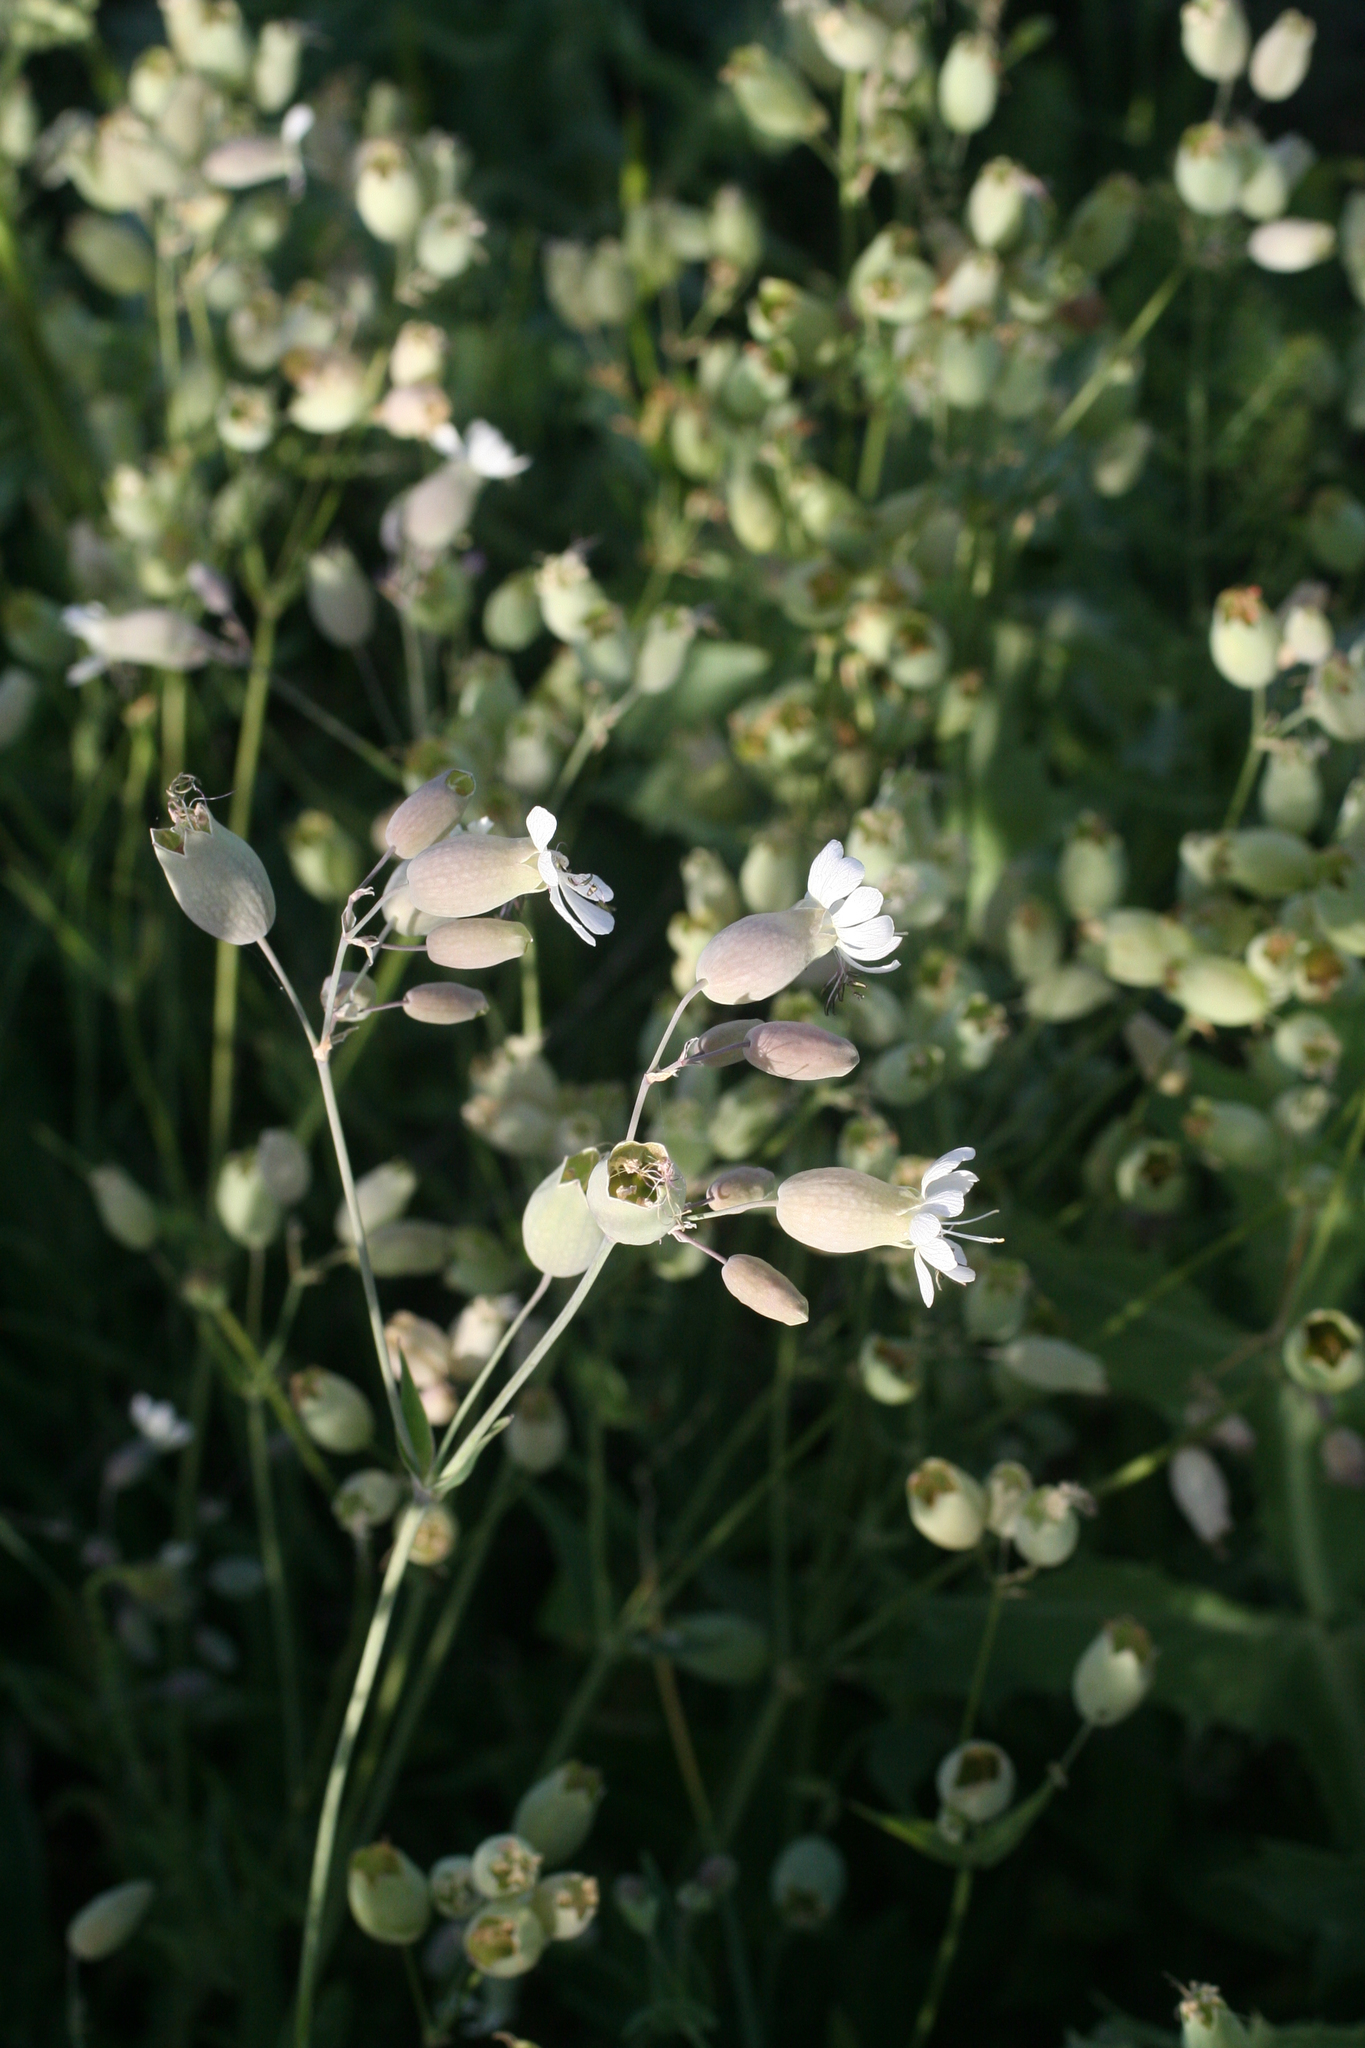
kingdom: Plantae
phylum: Tracheophyta
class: Magnoliopsida
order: Caryophyllales
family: Caryophyllaceae
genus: Silene
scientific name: Silene vulgaris
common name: Bladder campion
